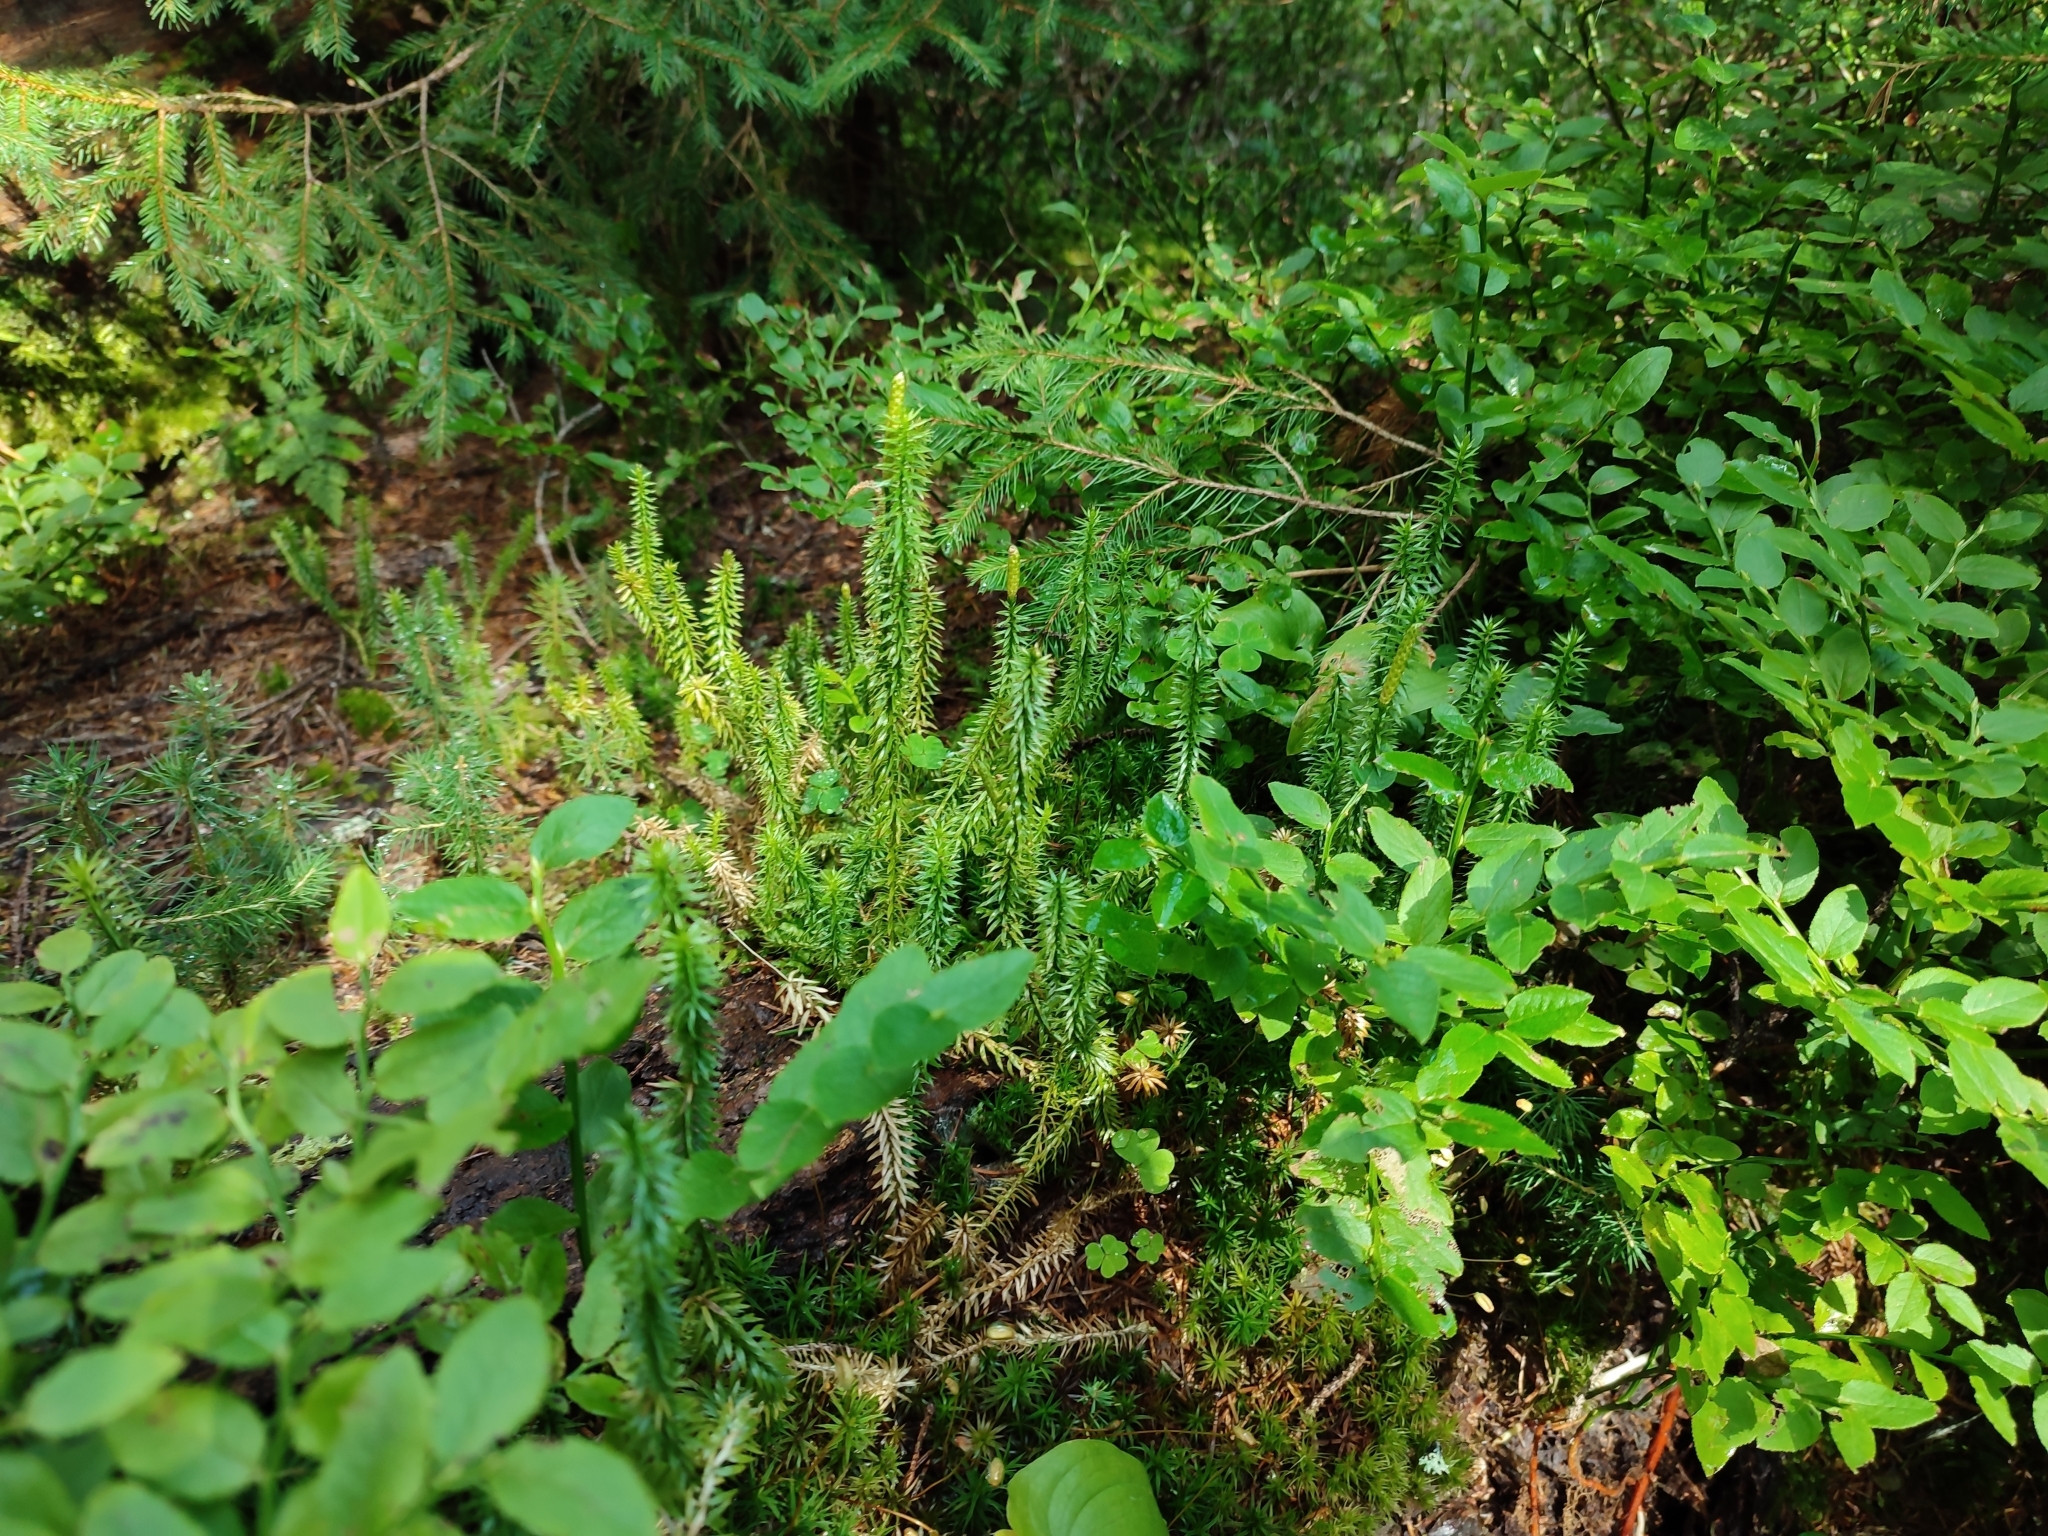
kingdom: Plantae
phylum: Tracheophyta
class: Lycopodiopsida
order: Lycopodiales
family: Lycopodiaceae
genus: Spinulum
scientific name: Spinulum annotinum
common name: Interrupted club-moss
